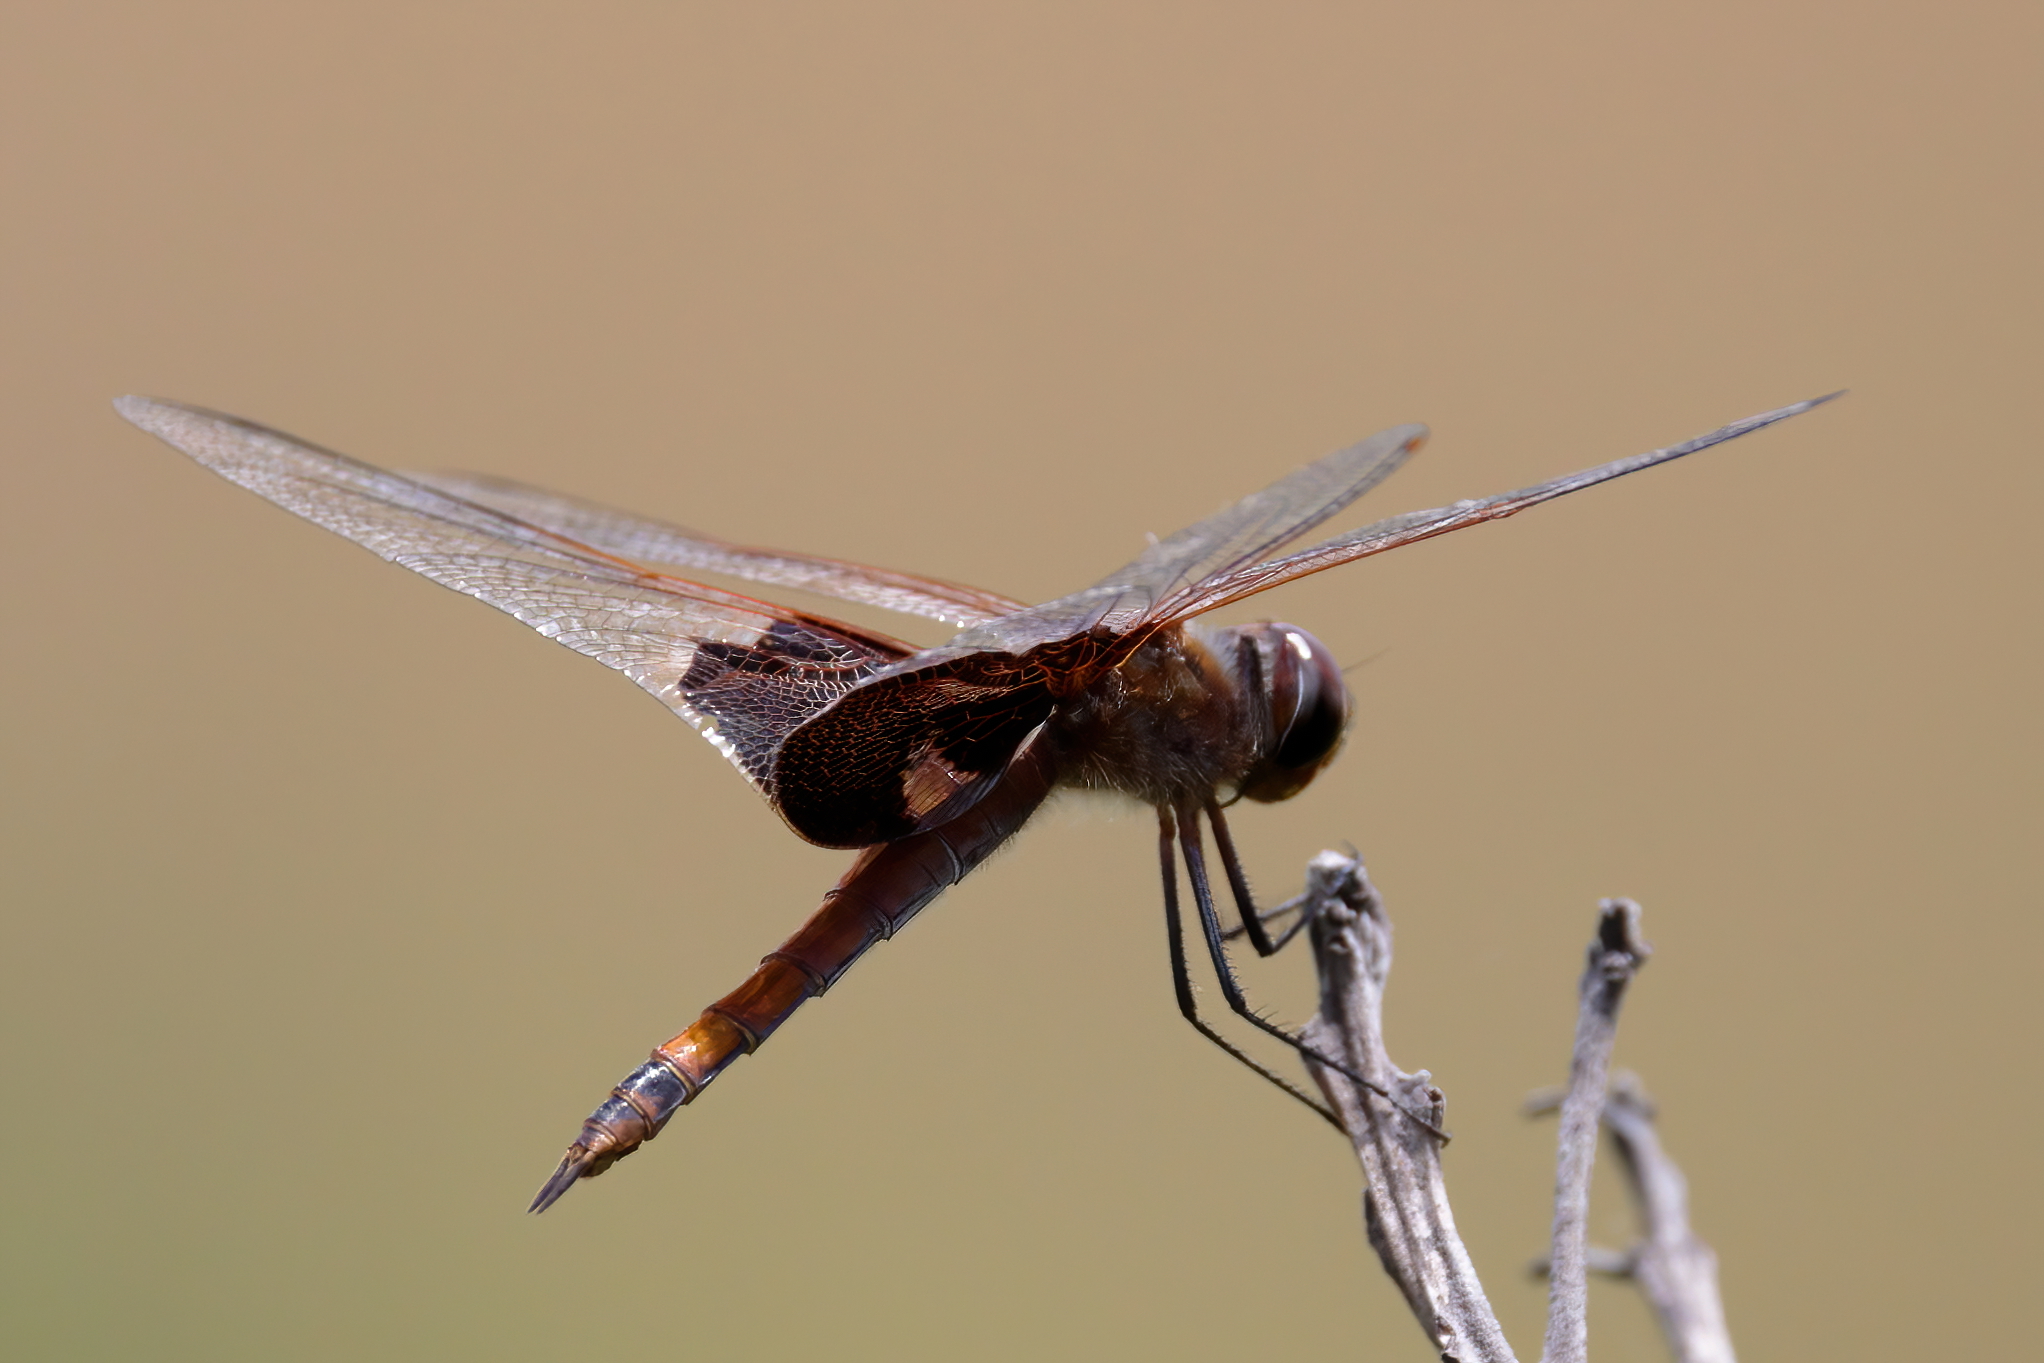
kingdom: Animalia
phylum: Arthropoda
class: Insecta
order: Odonata
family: Libellulidae
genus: Tramea
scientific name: Tramea carolina
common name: Carolina saddlebags
